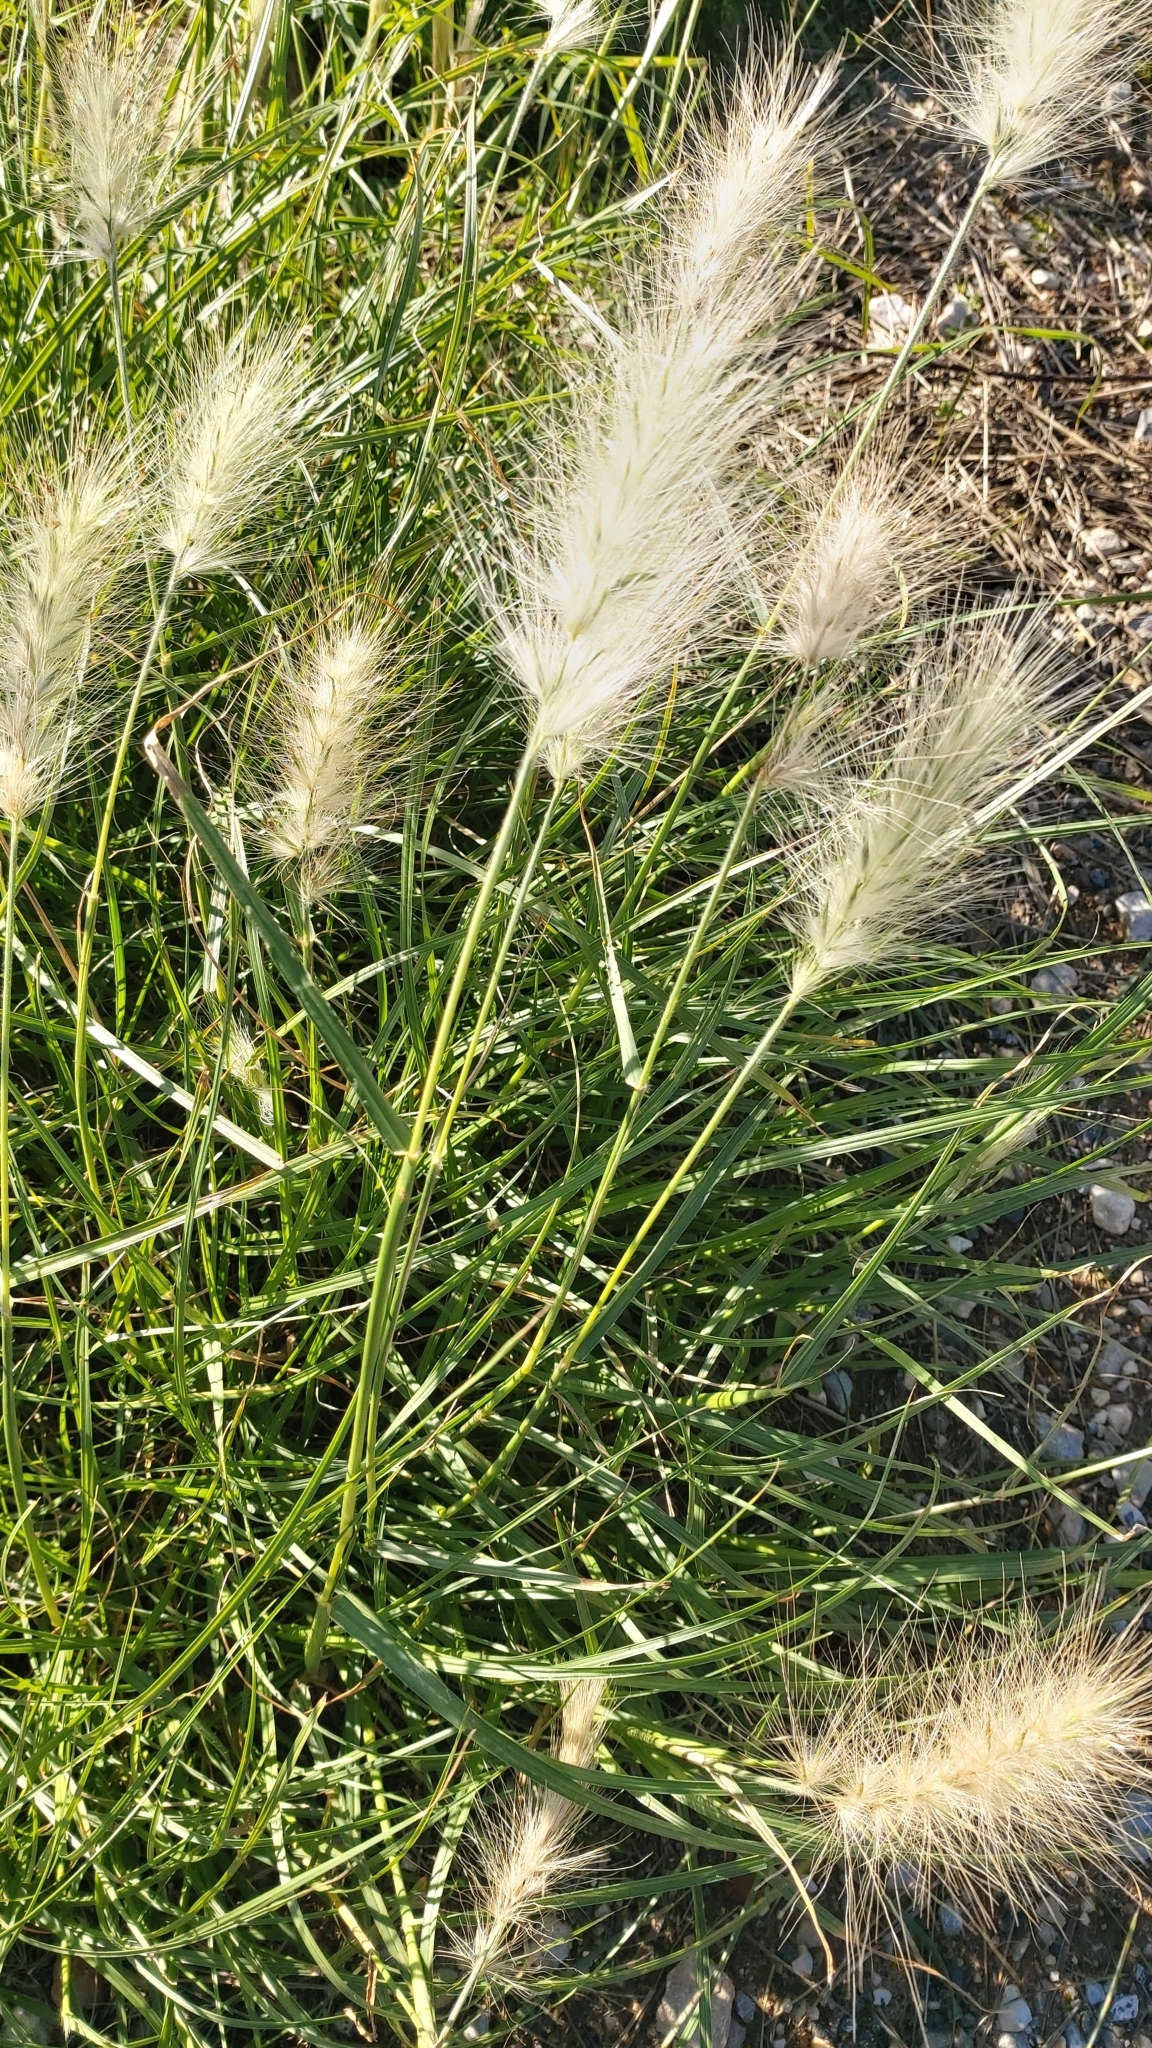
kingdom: Plantae
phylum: Tracheophyta
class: Liliopsida
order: Poales
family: Poaceae
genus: Cenchrus
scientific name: Cenchrus longisetus
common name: Feathertop
